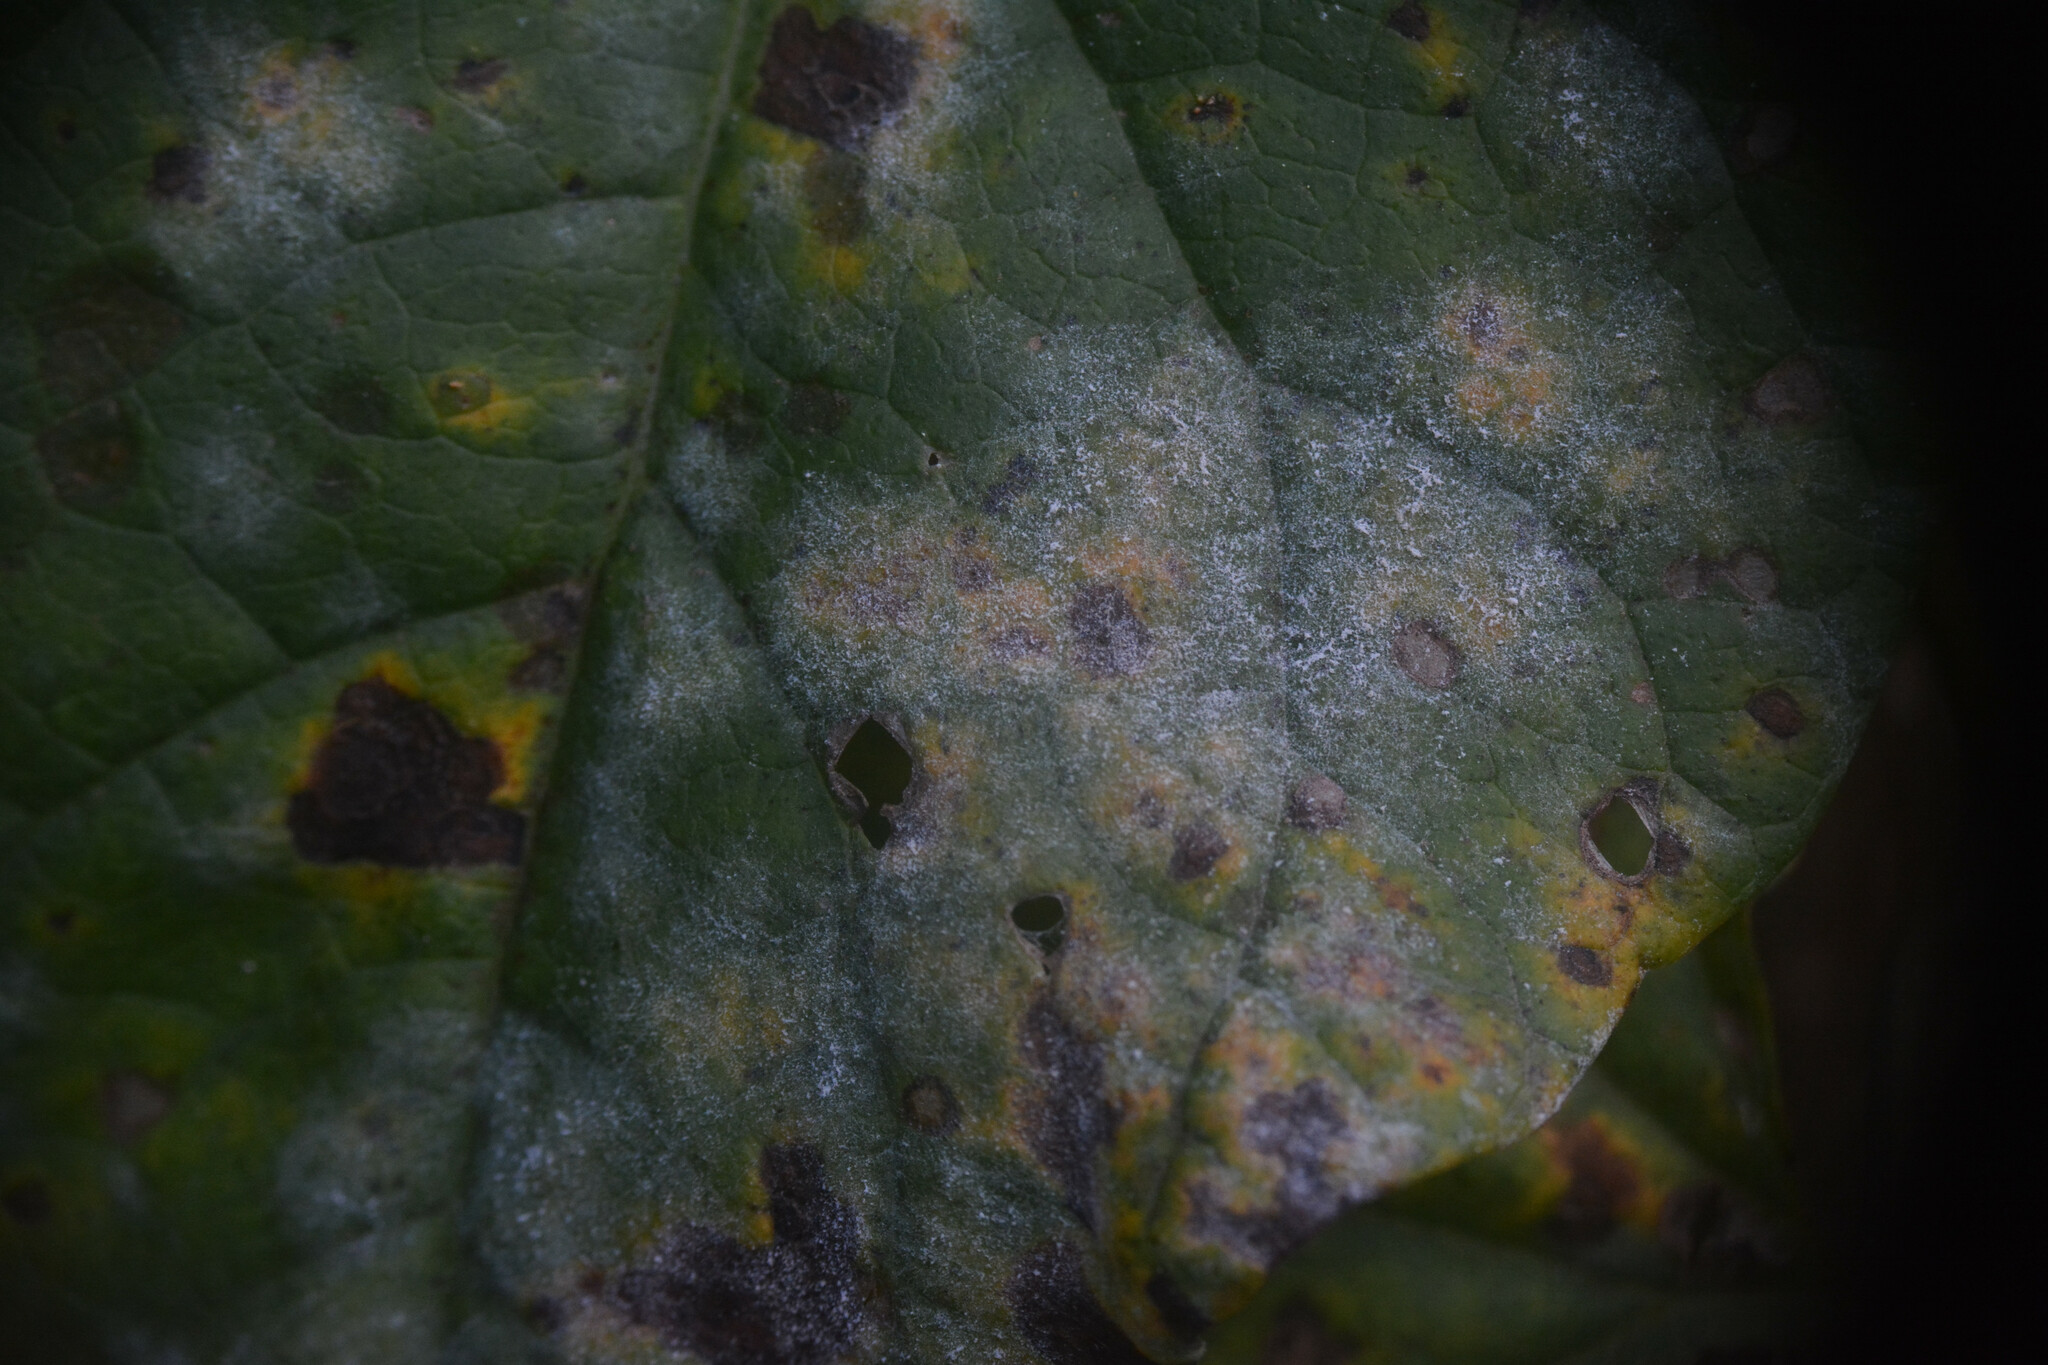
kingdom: Fungi
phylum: Ascomycota
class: Leotiomycetes
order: Helotiales
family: Erysiphaceae
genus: Erysiphe
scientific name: Erysiphe convolvuli
